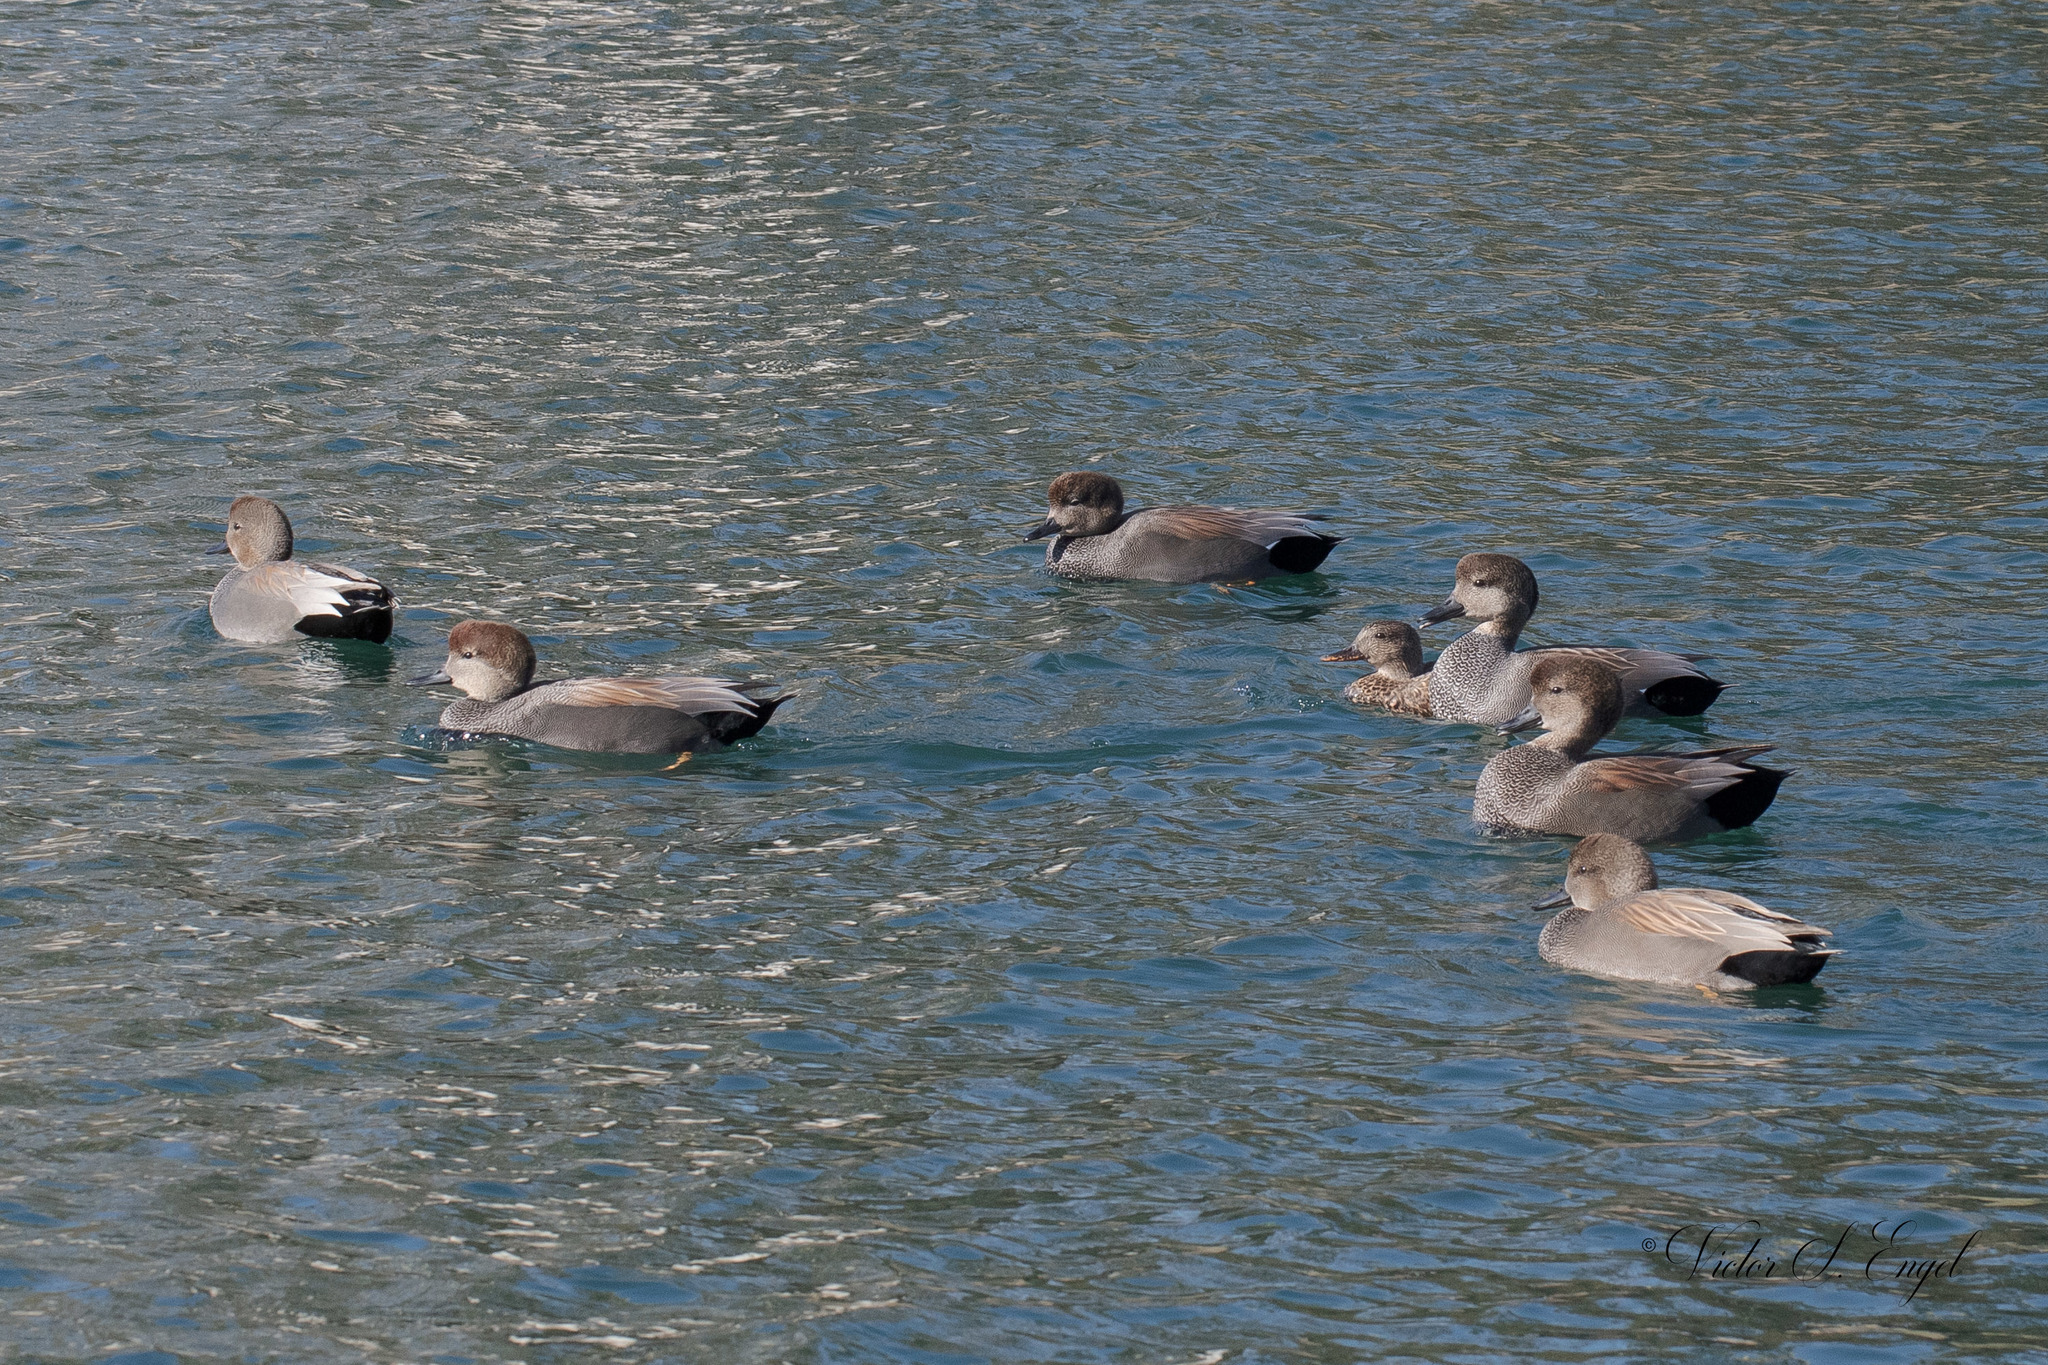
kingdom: Animalia
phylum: Chordata
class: Aves
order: Anseriformes
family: Anatidae
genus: Mareca
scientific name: Mareca strepera
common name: Gadwall
